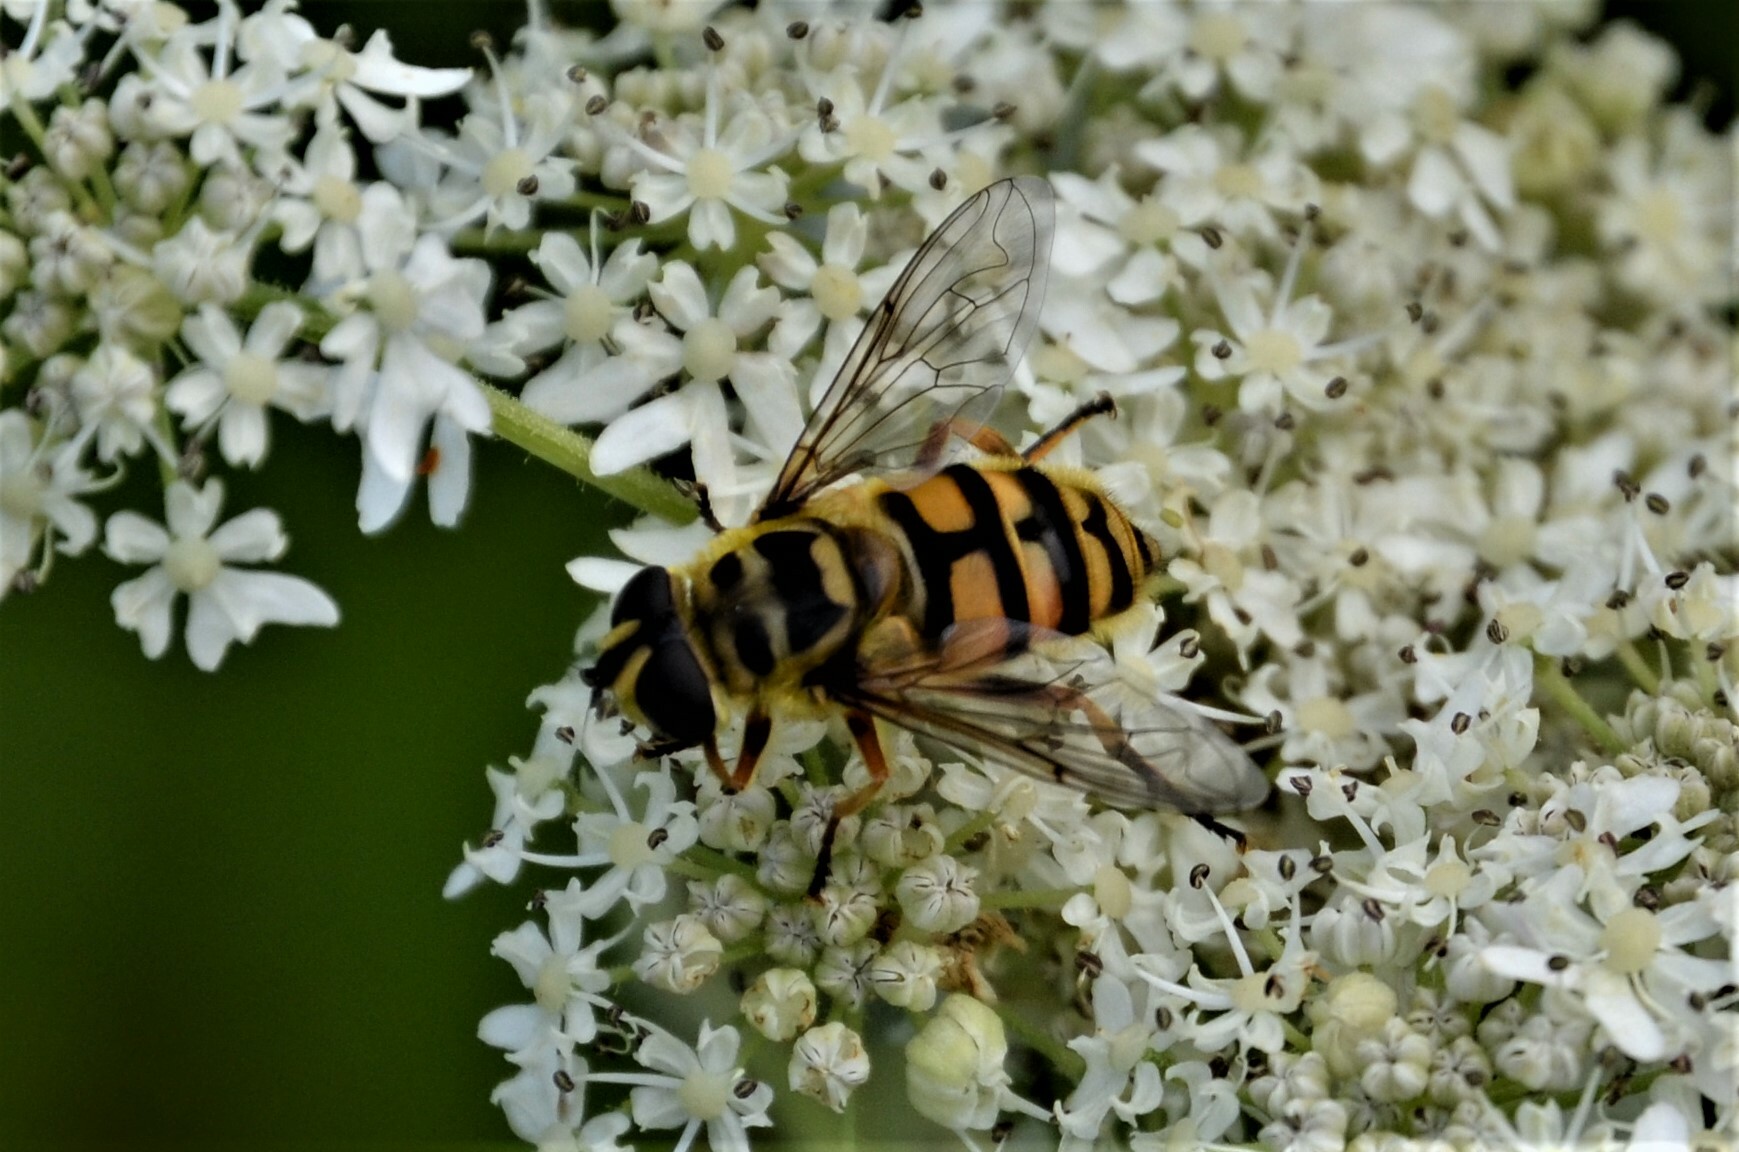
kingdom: Animalia
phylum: Arthropoda
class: Insecta
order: Diptera
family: Syrphidae
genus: Myathropa
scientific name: Myathropa florea
